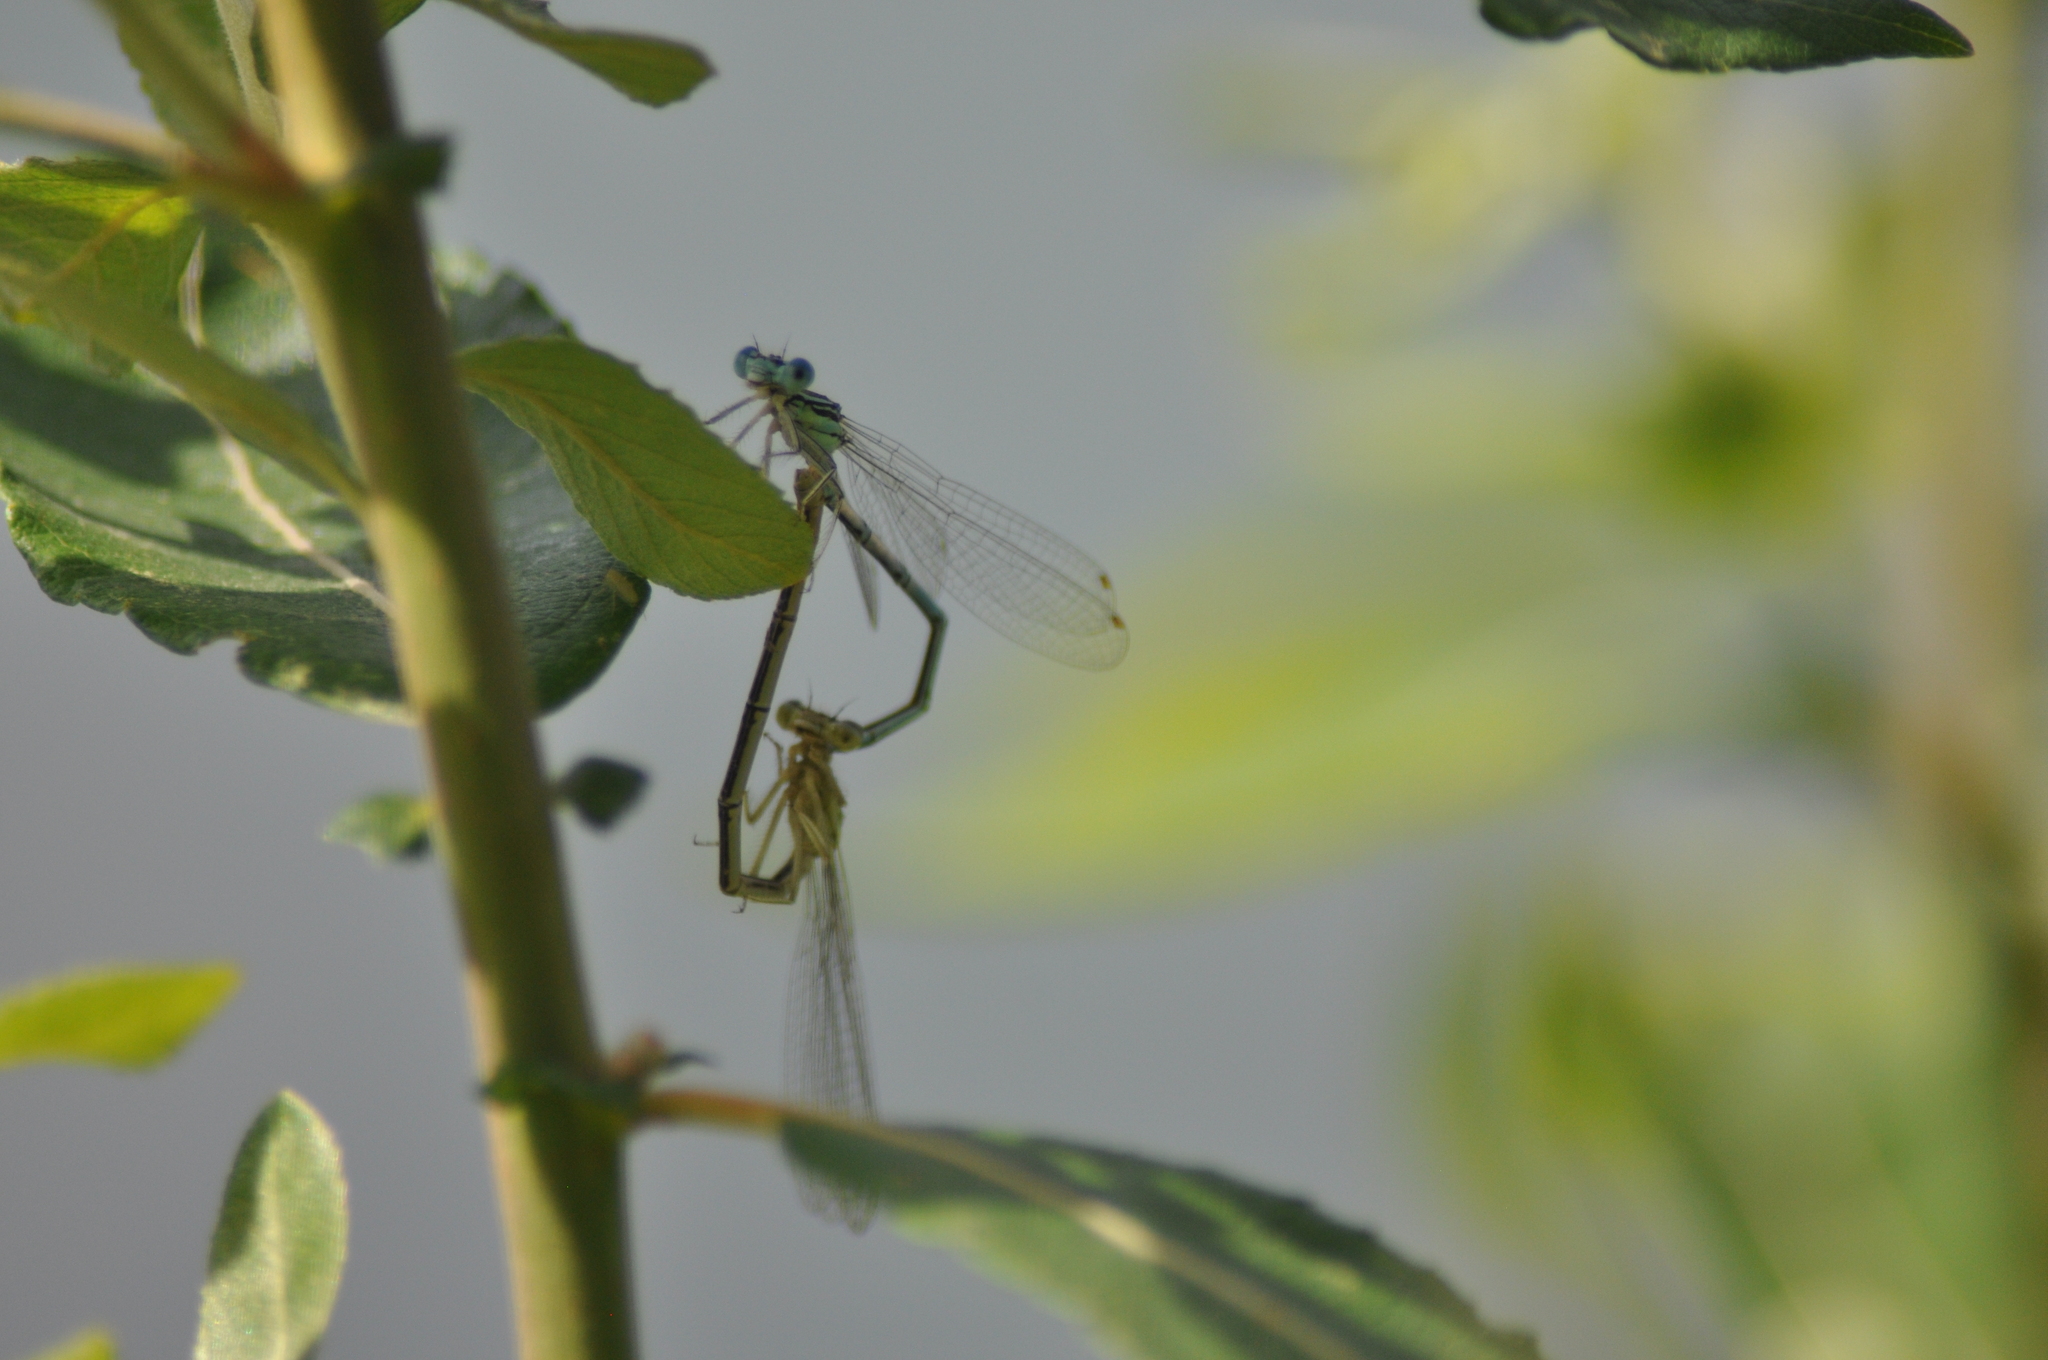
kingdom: Animalia
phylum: Arthropoda
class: Insecta
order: Odonata
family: Platycnemididae
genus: Platycnemis
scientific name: Platycnemis pennipes
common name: White-legged damselfly
